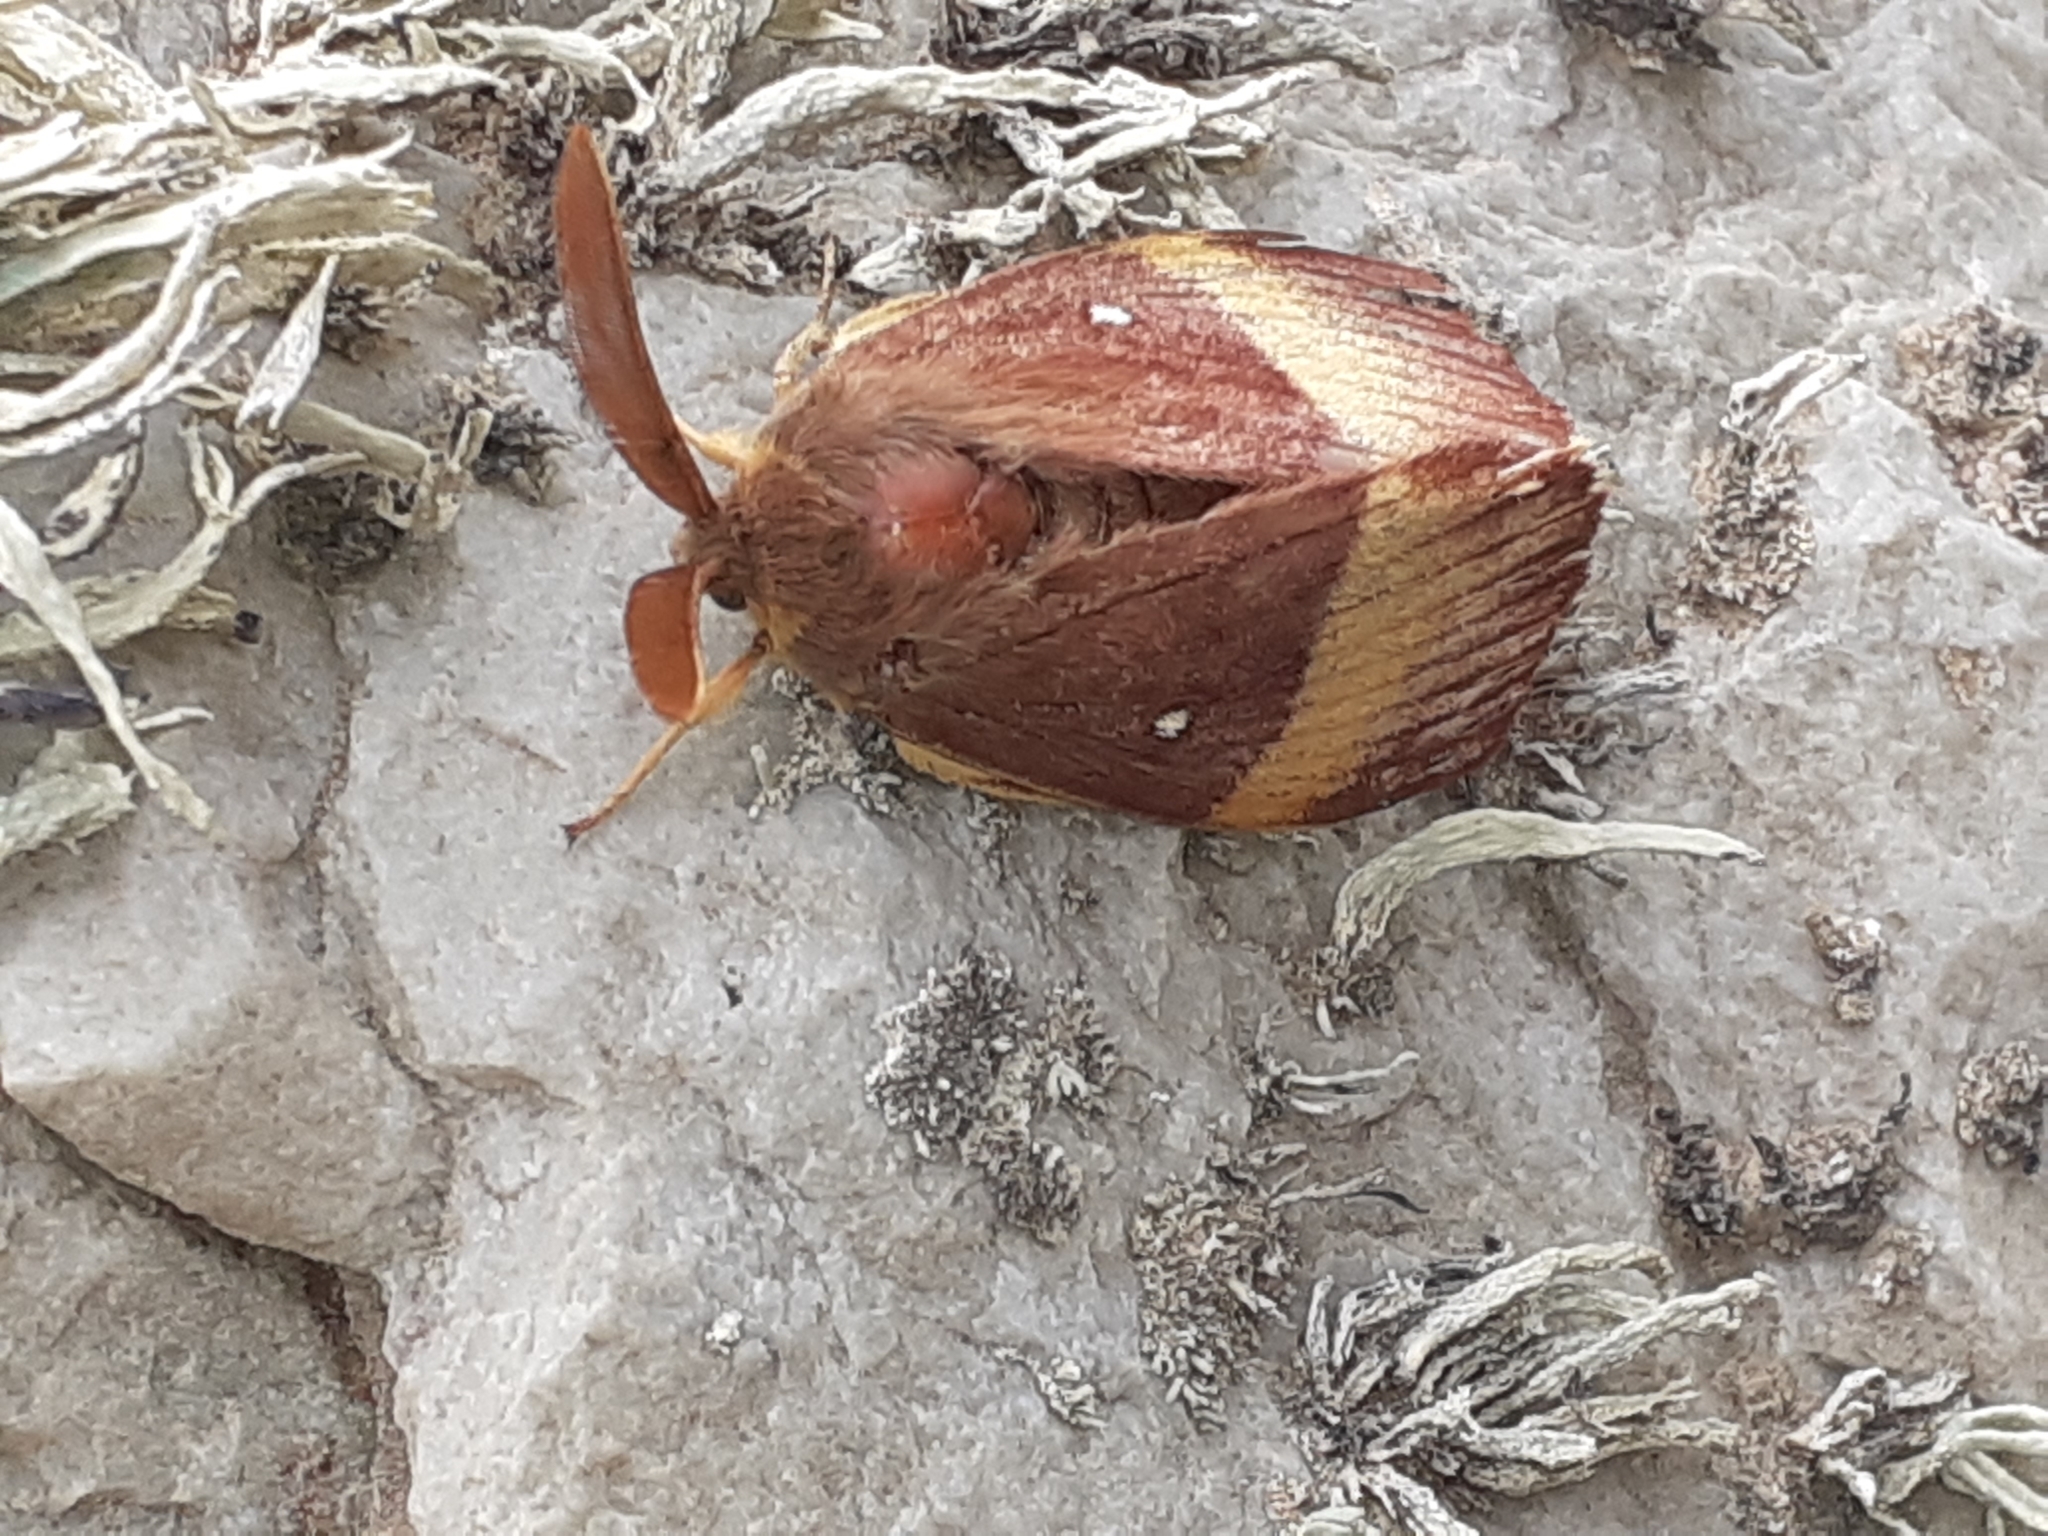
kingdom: Animalia
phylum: Arthropoda
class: Insecta
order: Lepidoptera
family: Lasiocampidae
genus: Lasiocampa
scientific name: Lasiocampa quercus
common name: Oak eggar
